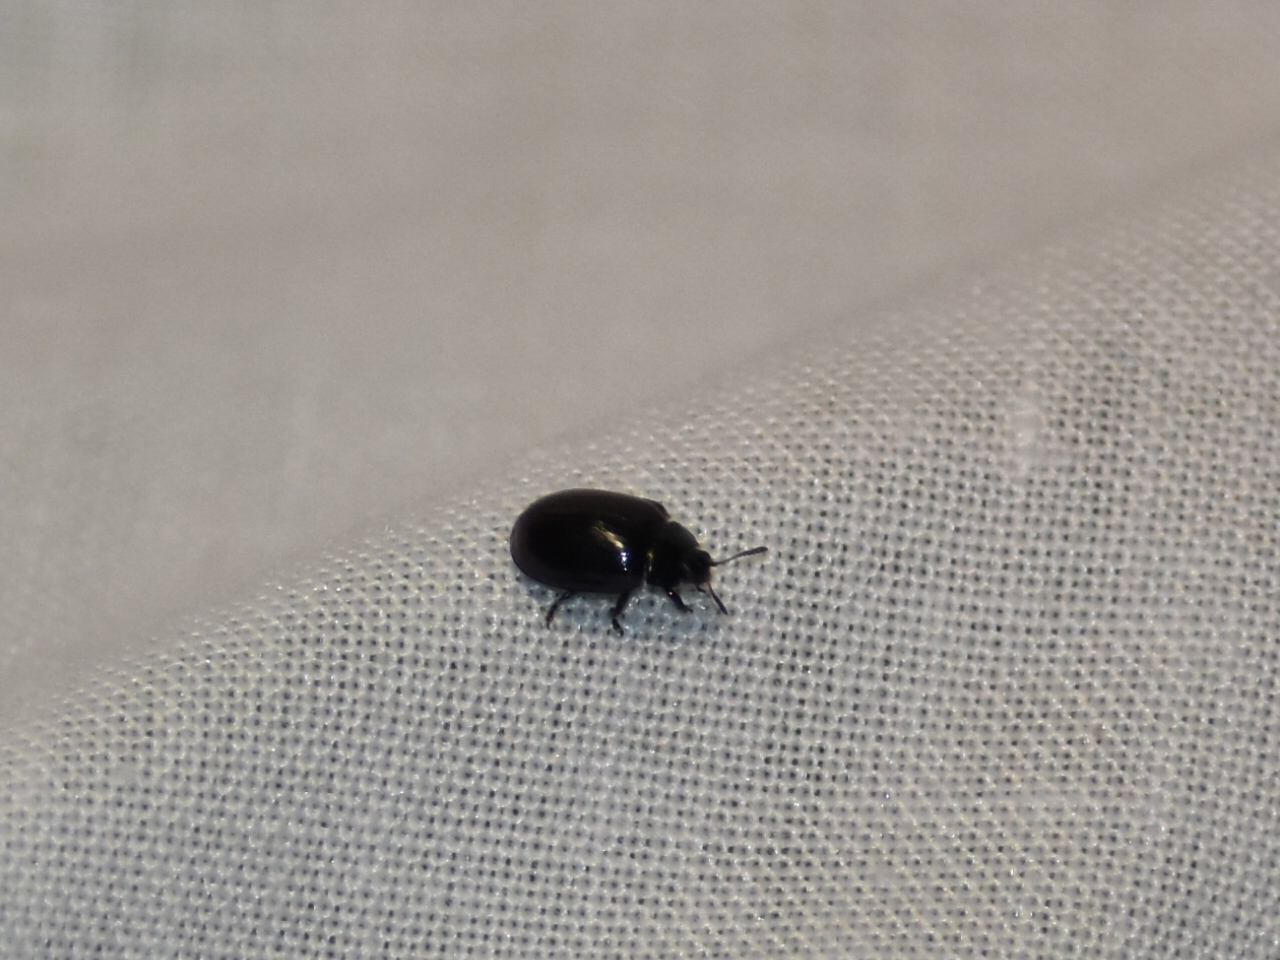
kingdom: Animalia
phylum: Arthropoda
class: Insecta
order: Coleoptera
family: Chrysomelidae
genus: Plagiodera
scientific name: Plagiodera versicolora
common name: Imported willow leaf beetle
